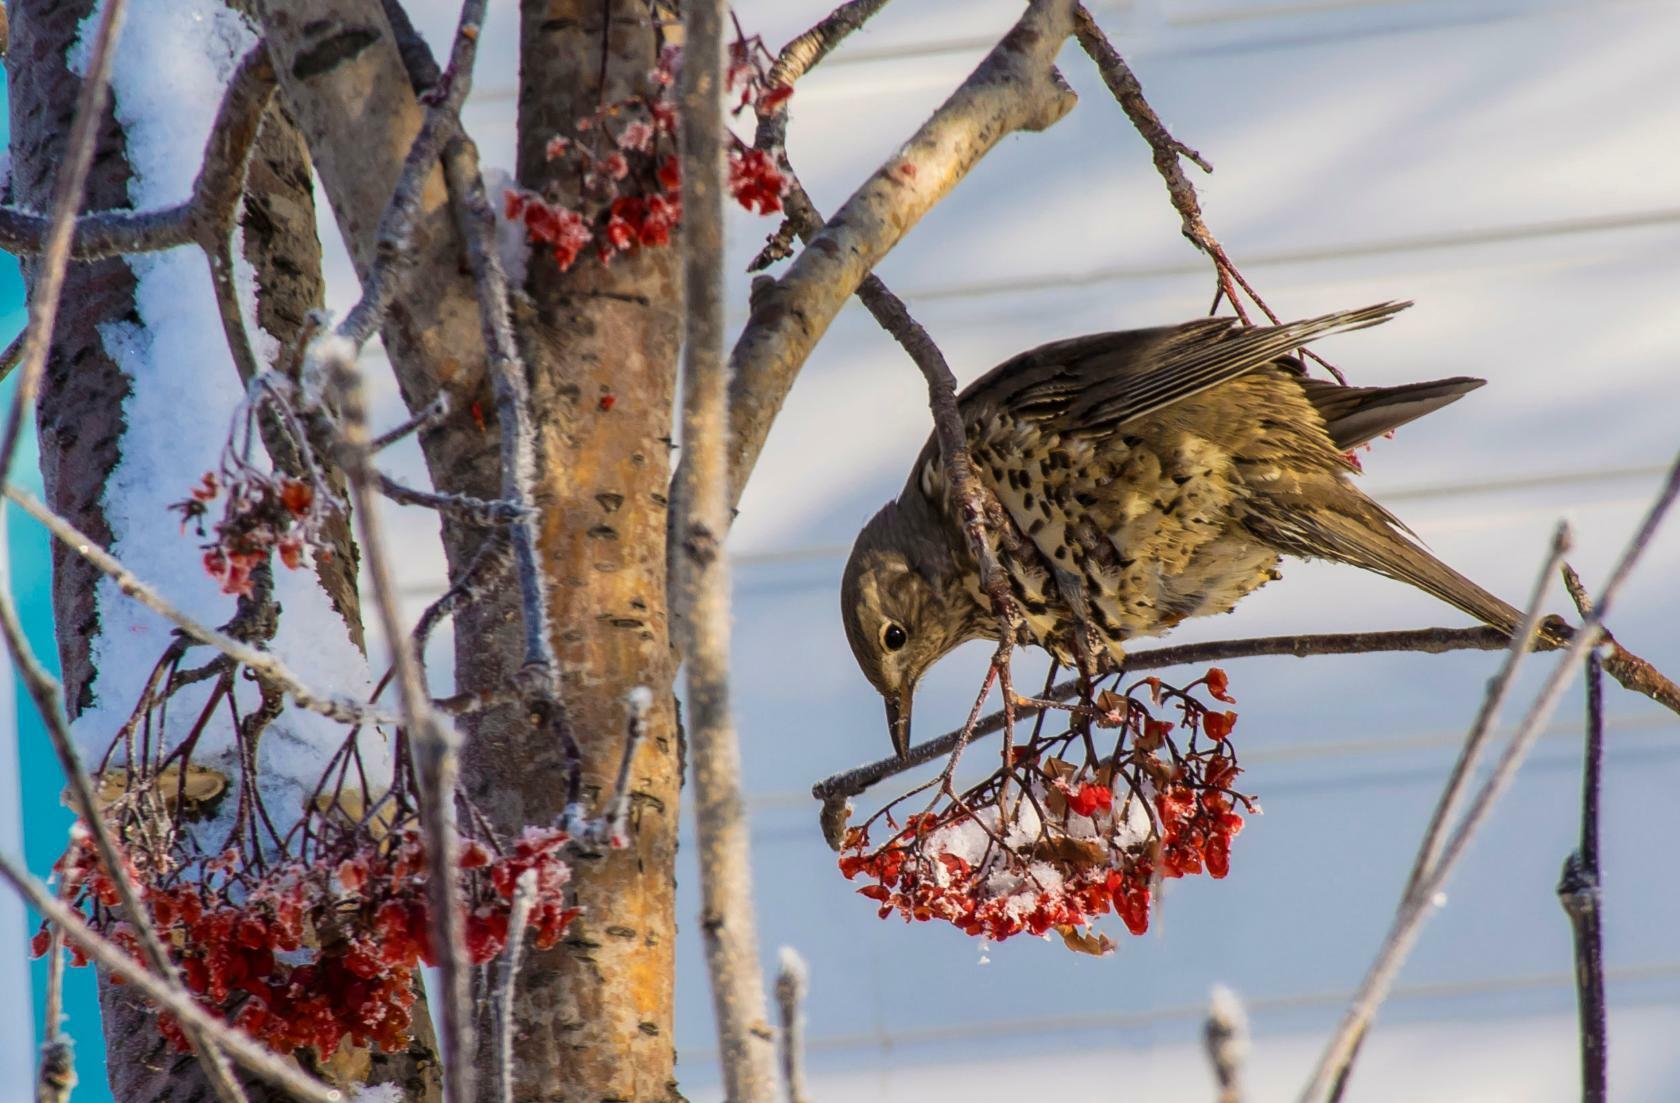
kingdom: Animalia
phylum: Chordata
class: Aves
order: Passeriformes
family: Turdidae
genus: Turdus
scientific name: Turdus viscivorus
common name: Mistle thrush
